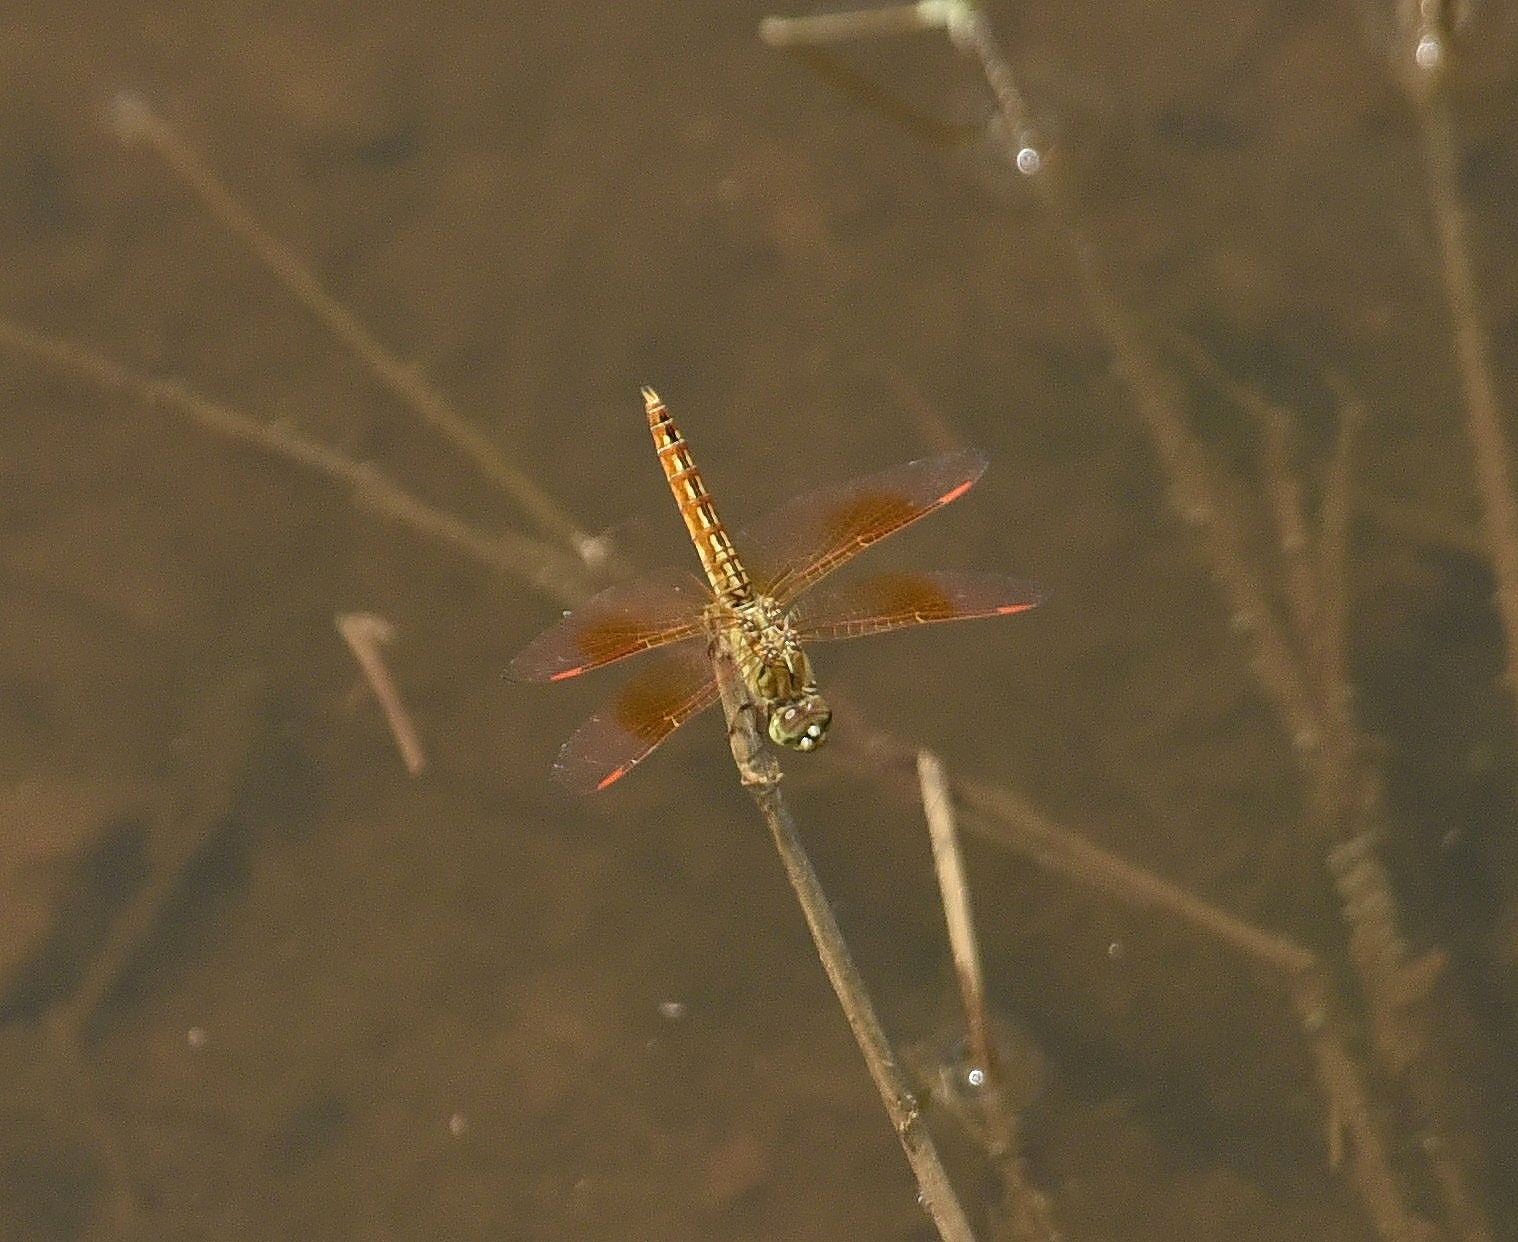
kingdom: Animalia
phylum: Arthropoda
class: Insecta
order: Odonata
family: Libellulidae
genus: Brachythemis
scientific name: Brachythemis contaminata
